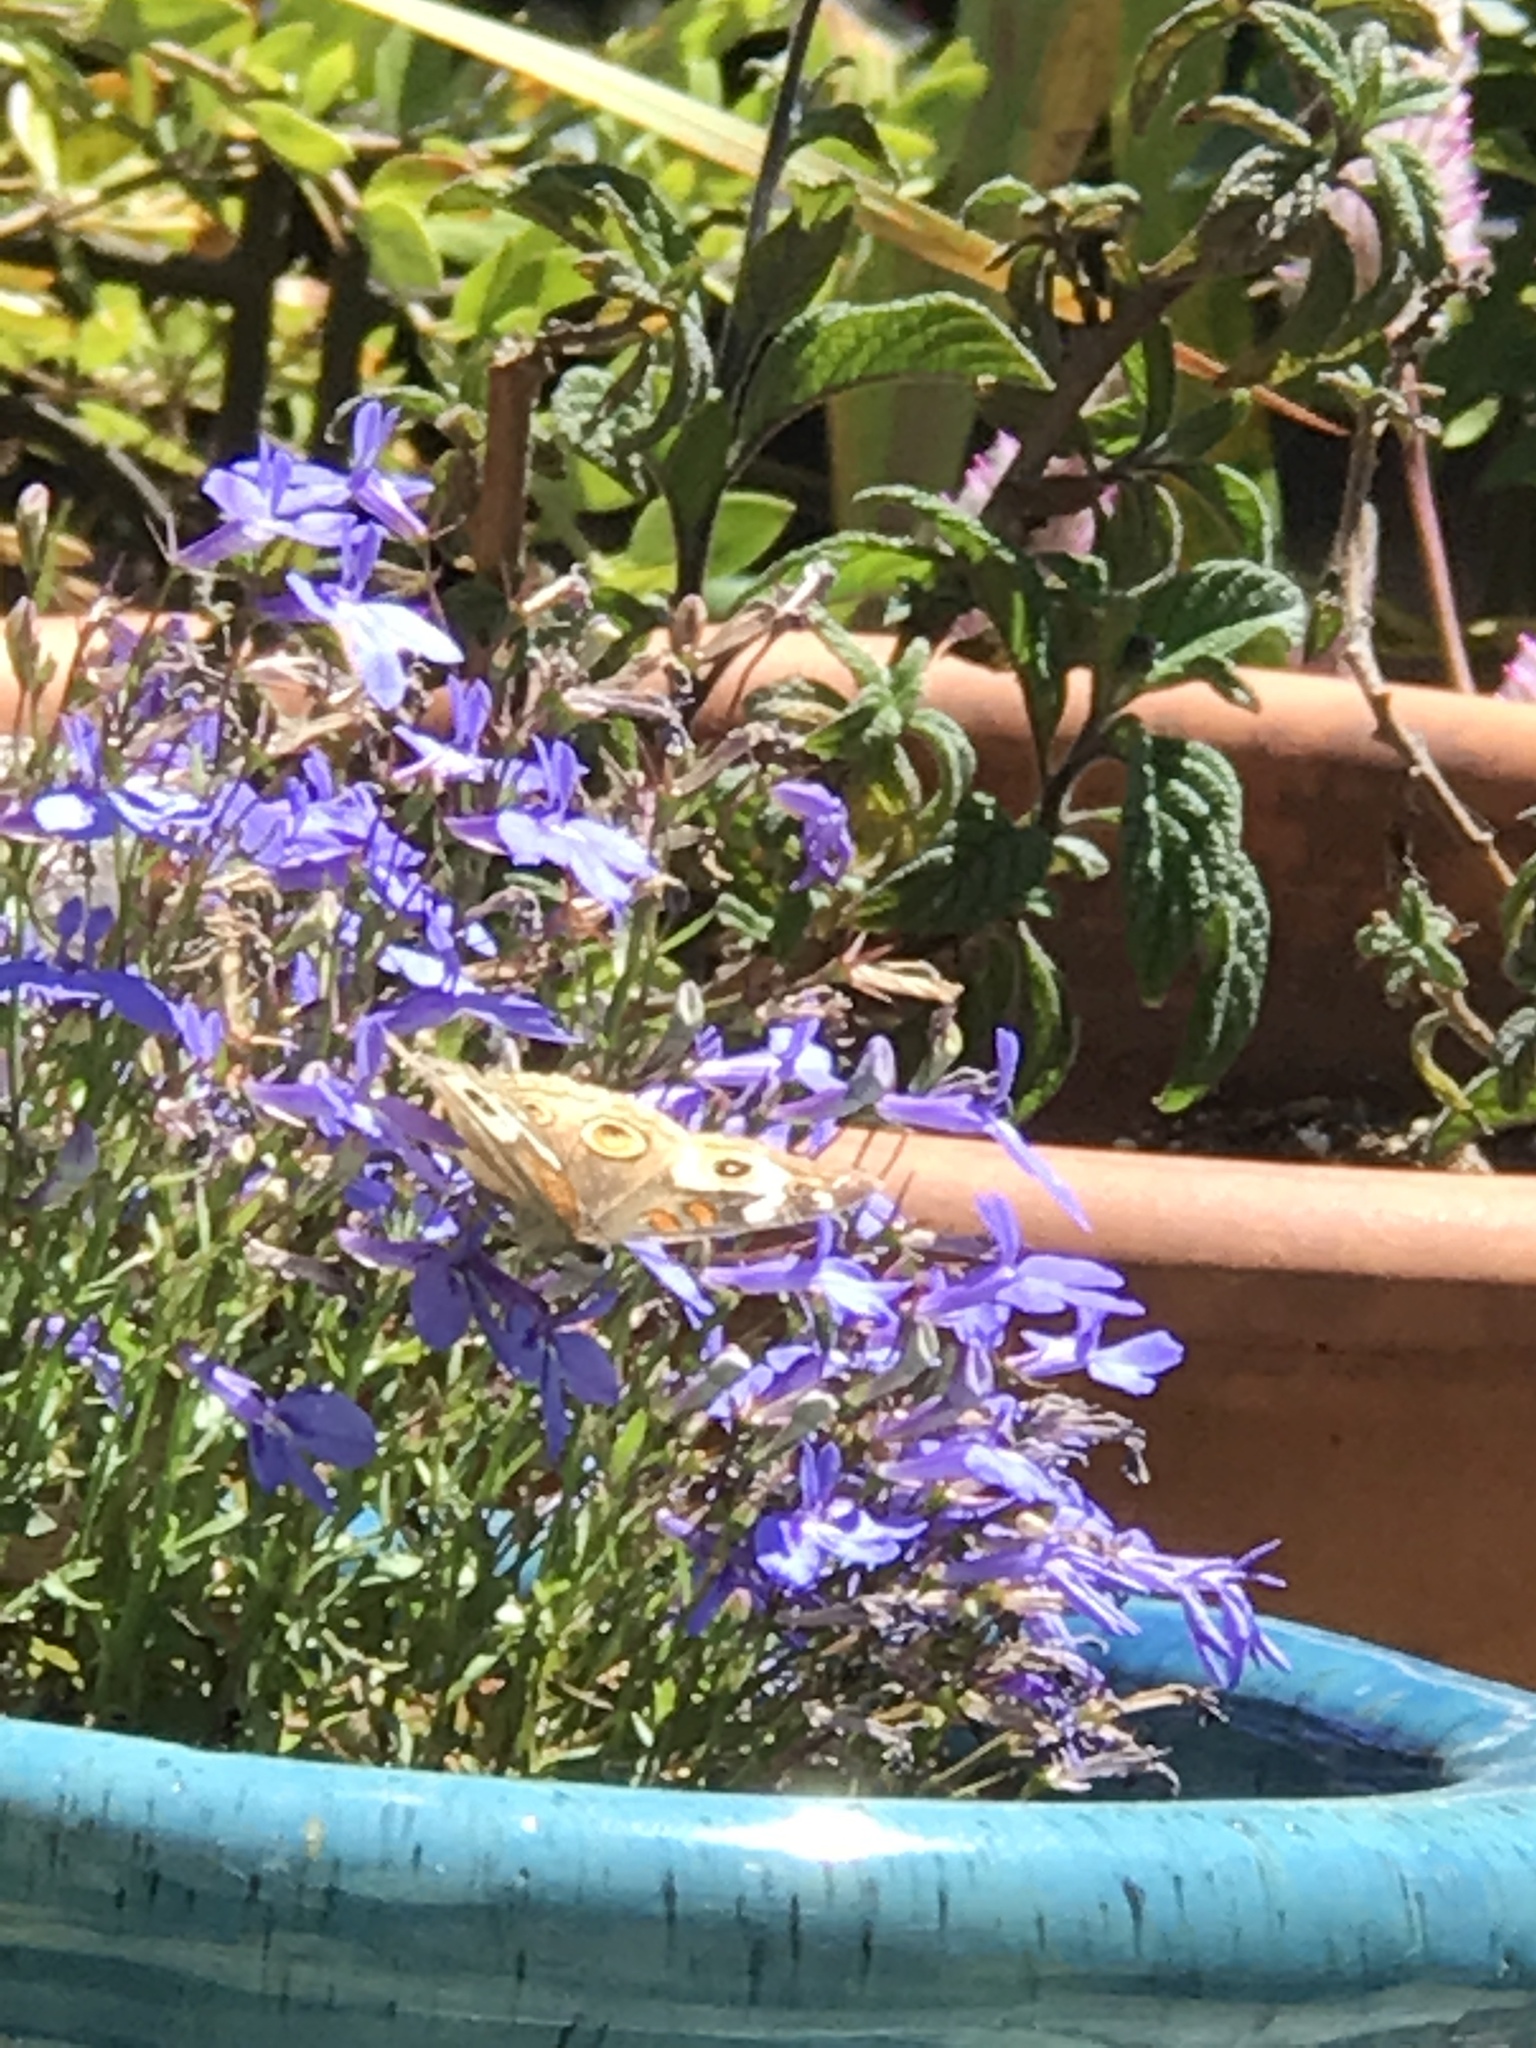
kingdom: Animalia
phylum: Arthropoda
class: Insecta
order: Lepidoptera
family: Nymphalidae
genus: Junonia
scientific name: Junonia grisea
